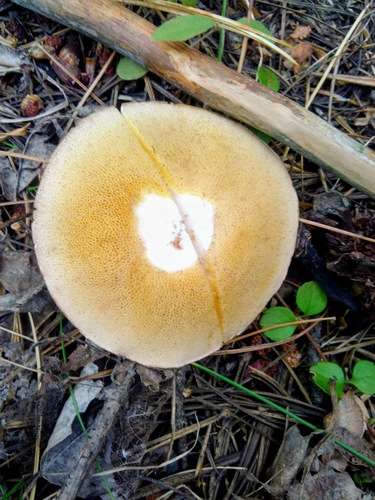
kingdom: Fungi
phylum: Basidiomycota
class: Agaricomycetes
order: Boletales
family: Suillaceae
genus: Suillus
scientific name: Suillus placidus
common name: Slippery white bolete
